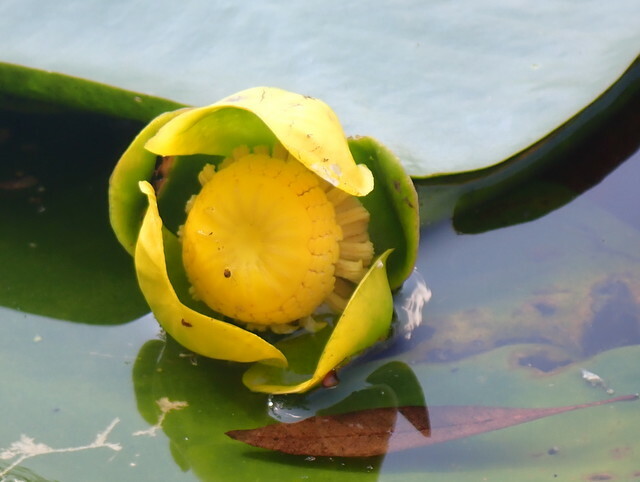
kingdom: Plantae
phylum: Tracheophyta
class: Magnoliopsida
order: Nymphaeales
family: Nymphaeaceae
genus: Nuphar
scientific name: Nuphar advena
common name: Spatter-dock
